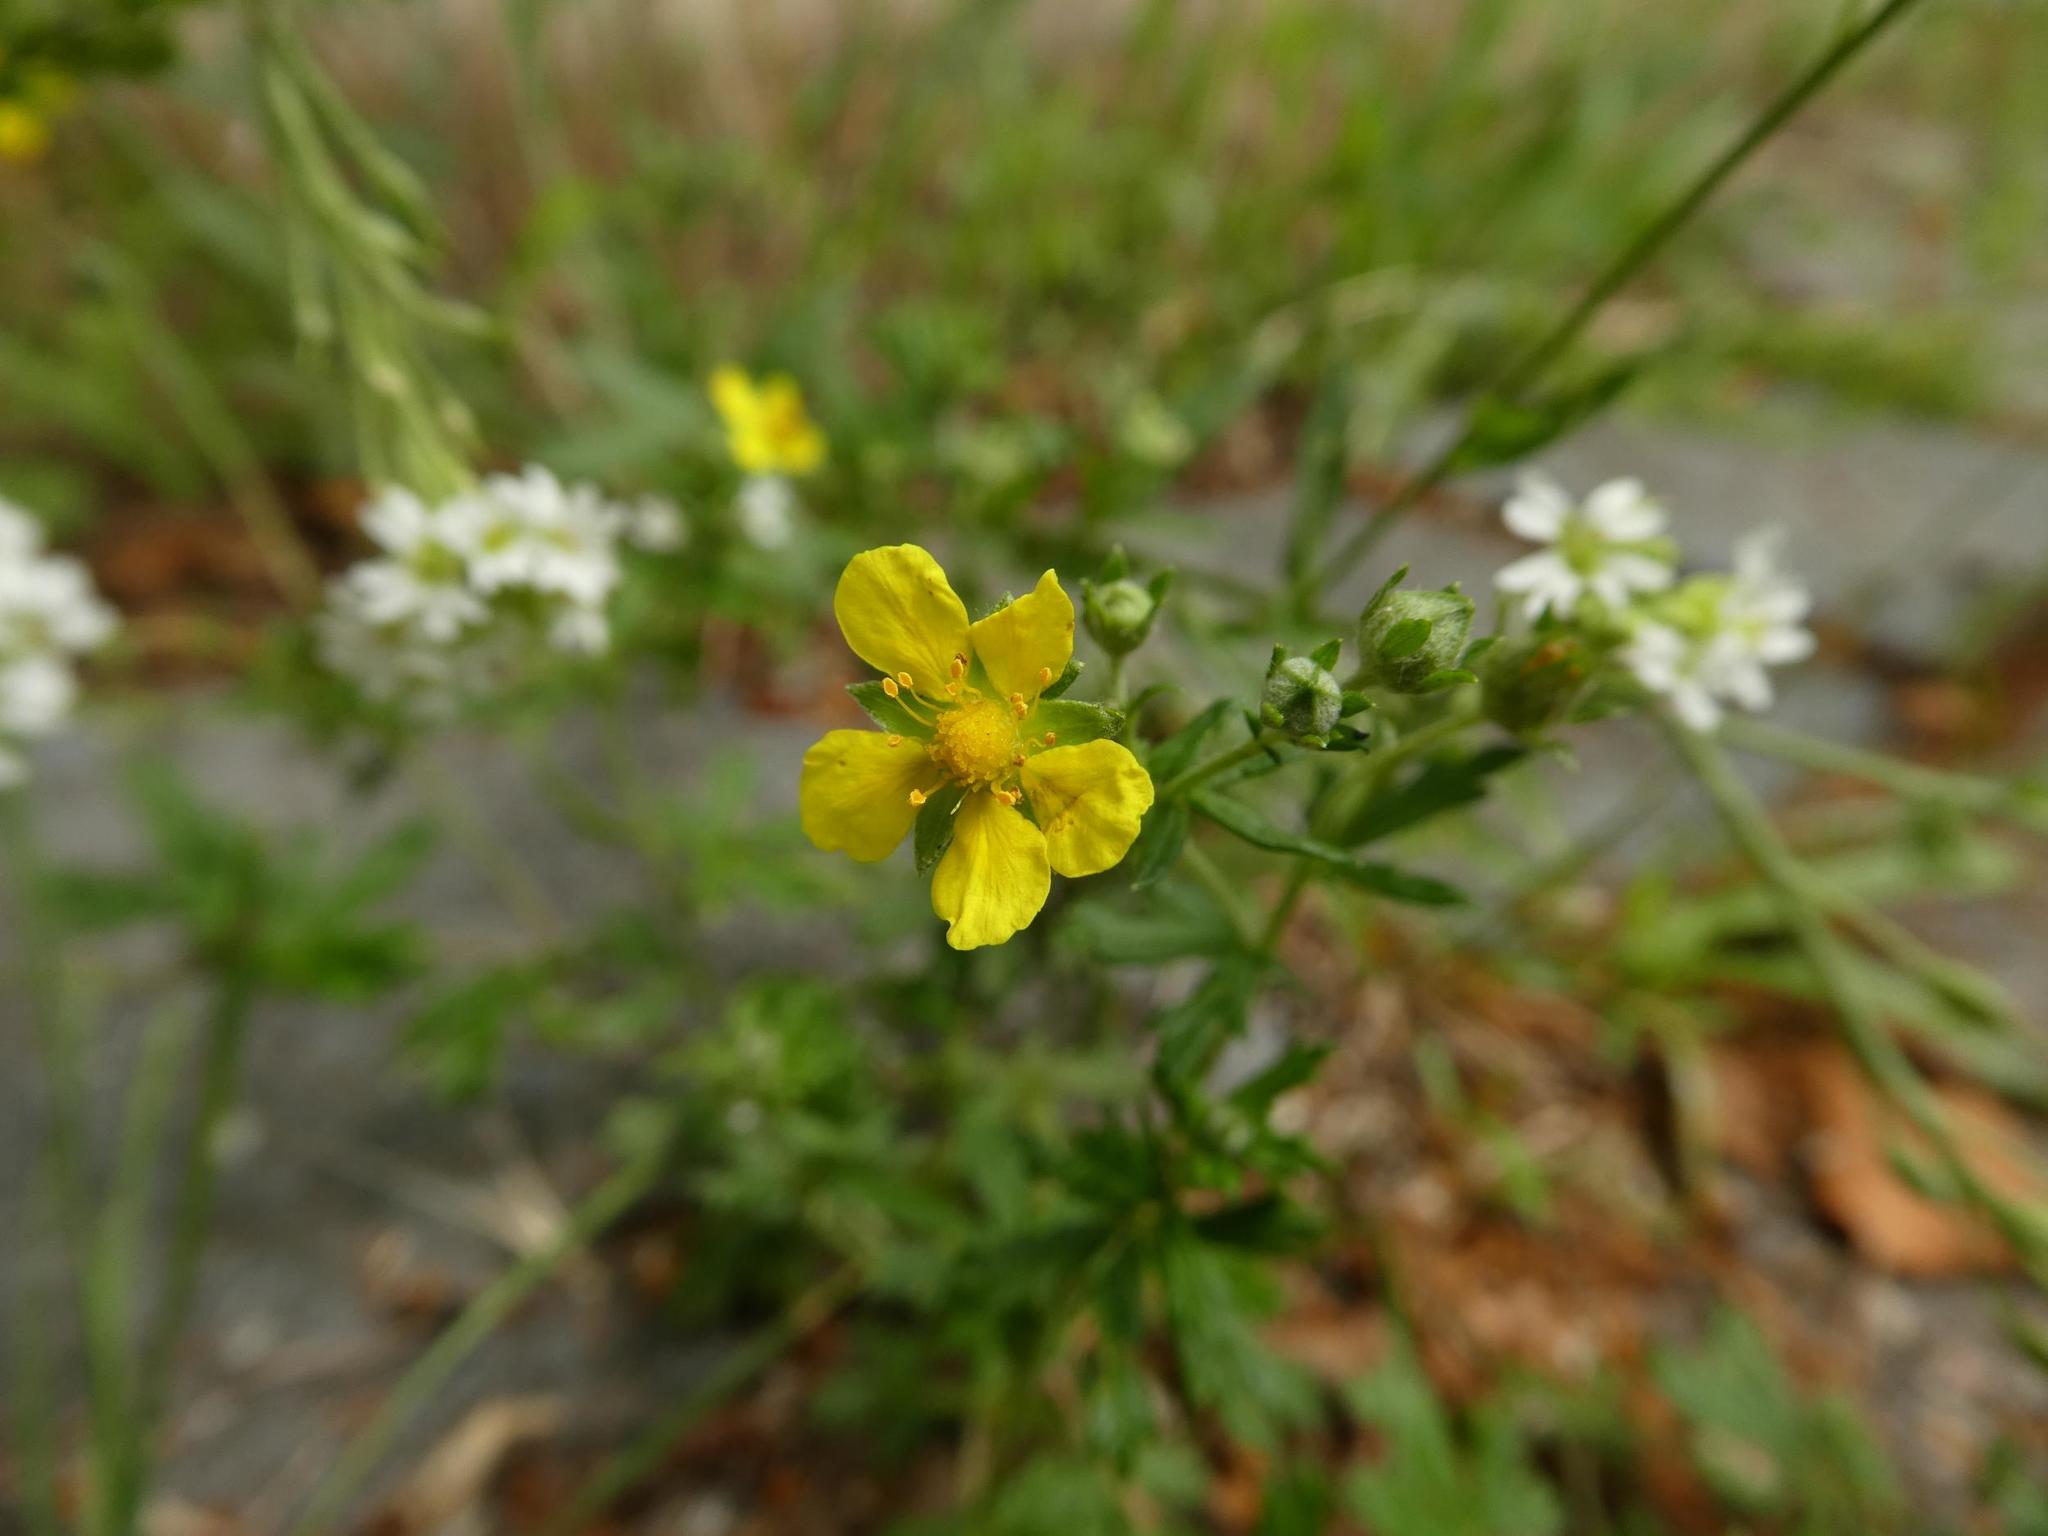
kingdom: Plantae
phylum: Tracheophyta
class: Magnoliopsida
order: Rosales
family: Rosaceae
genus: Potentilla
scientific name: Potentilla argentea
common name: Hoary cinquefoil
